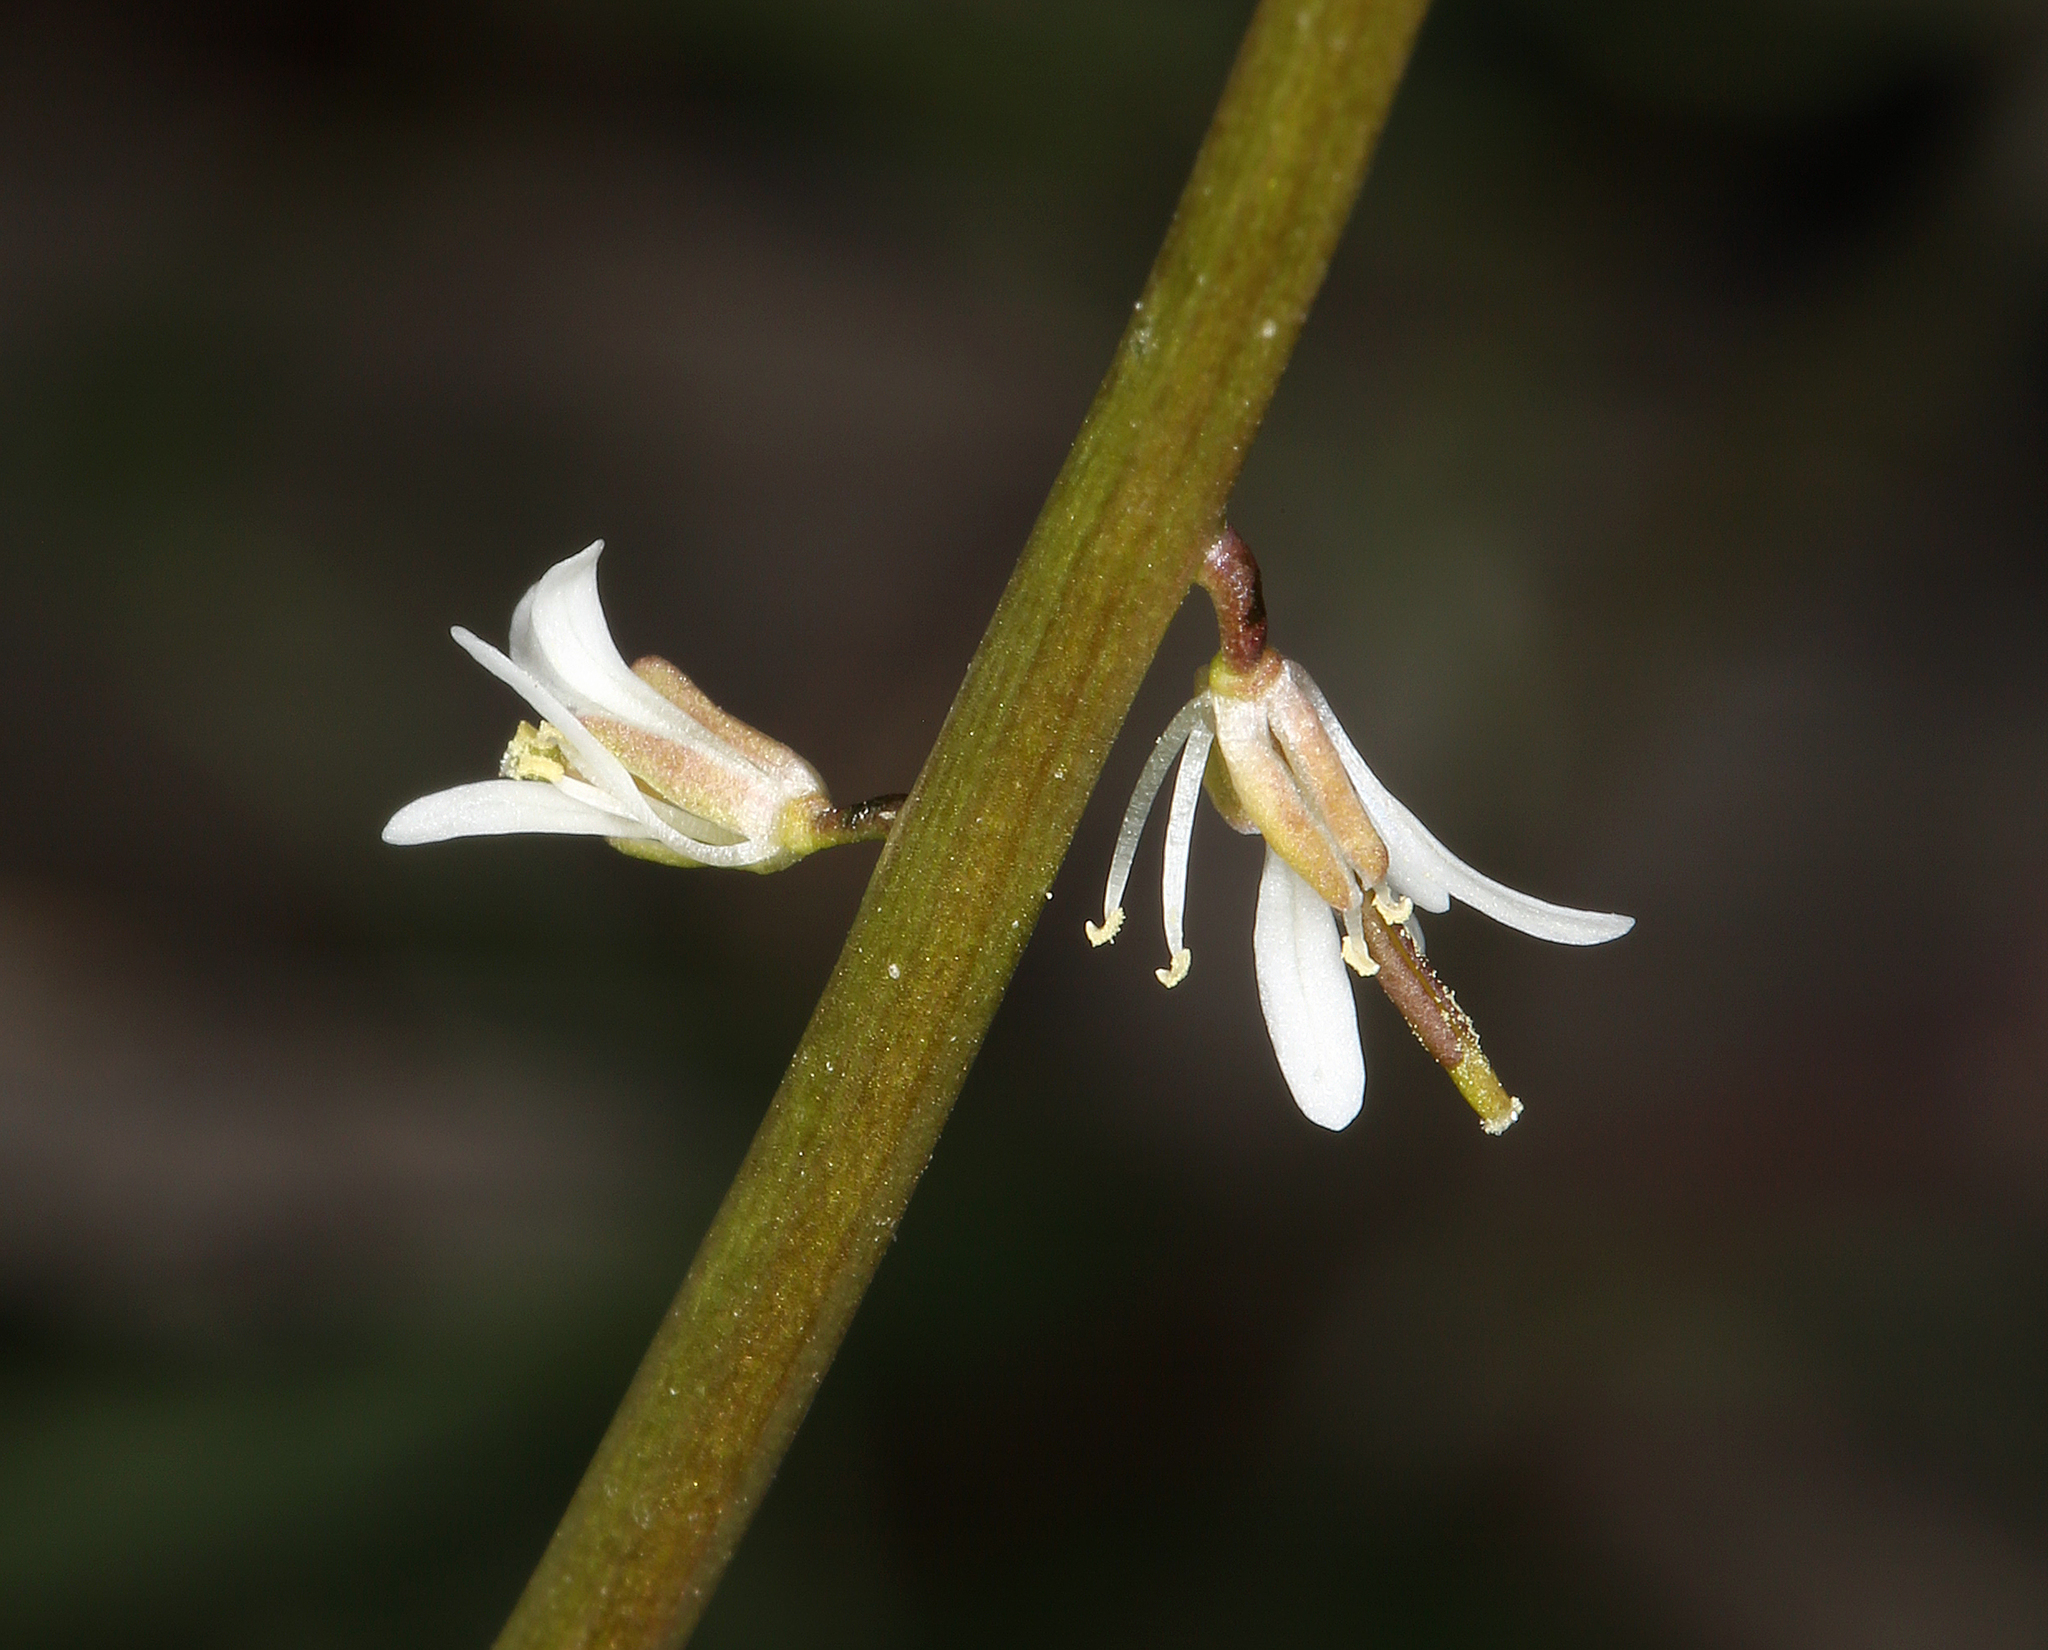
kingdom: Plantae
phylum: Tracheophyta
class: Magnoliopsida
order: Brassicales
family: Brassicaceae
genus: Streptanthus
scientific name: Streptanthus lasiophyllus
